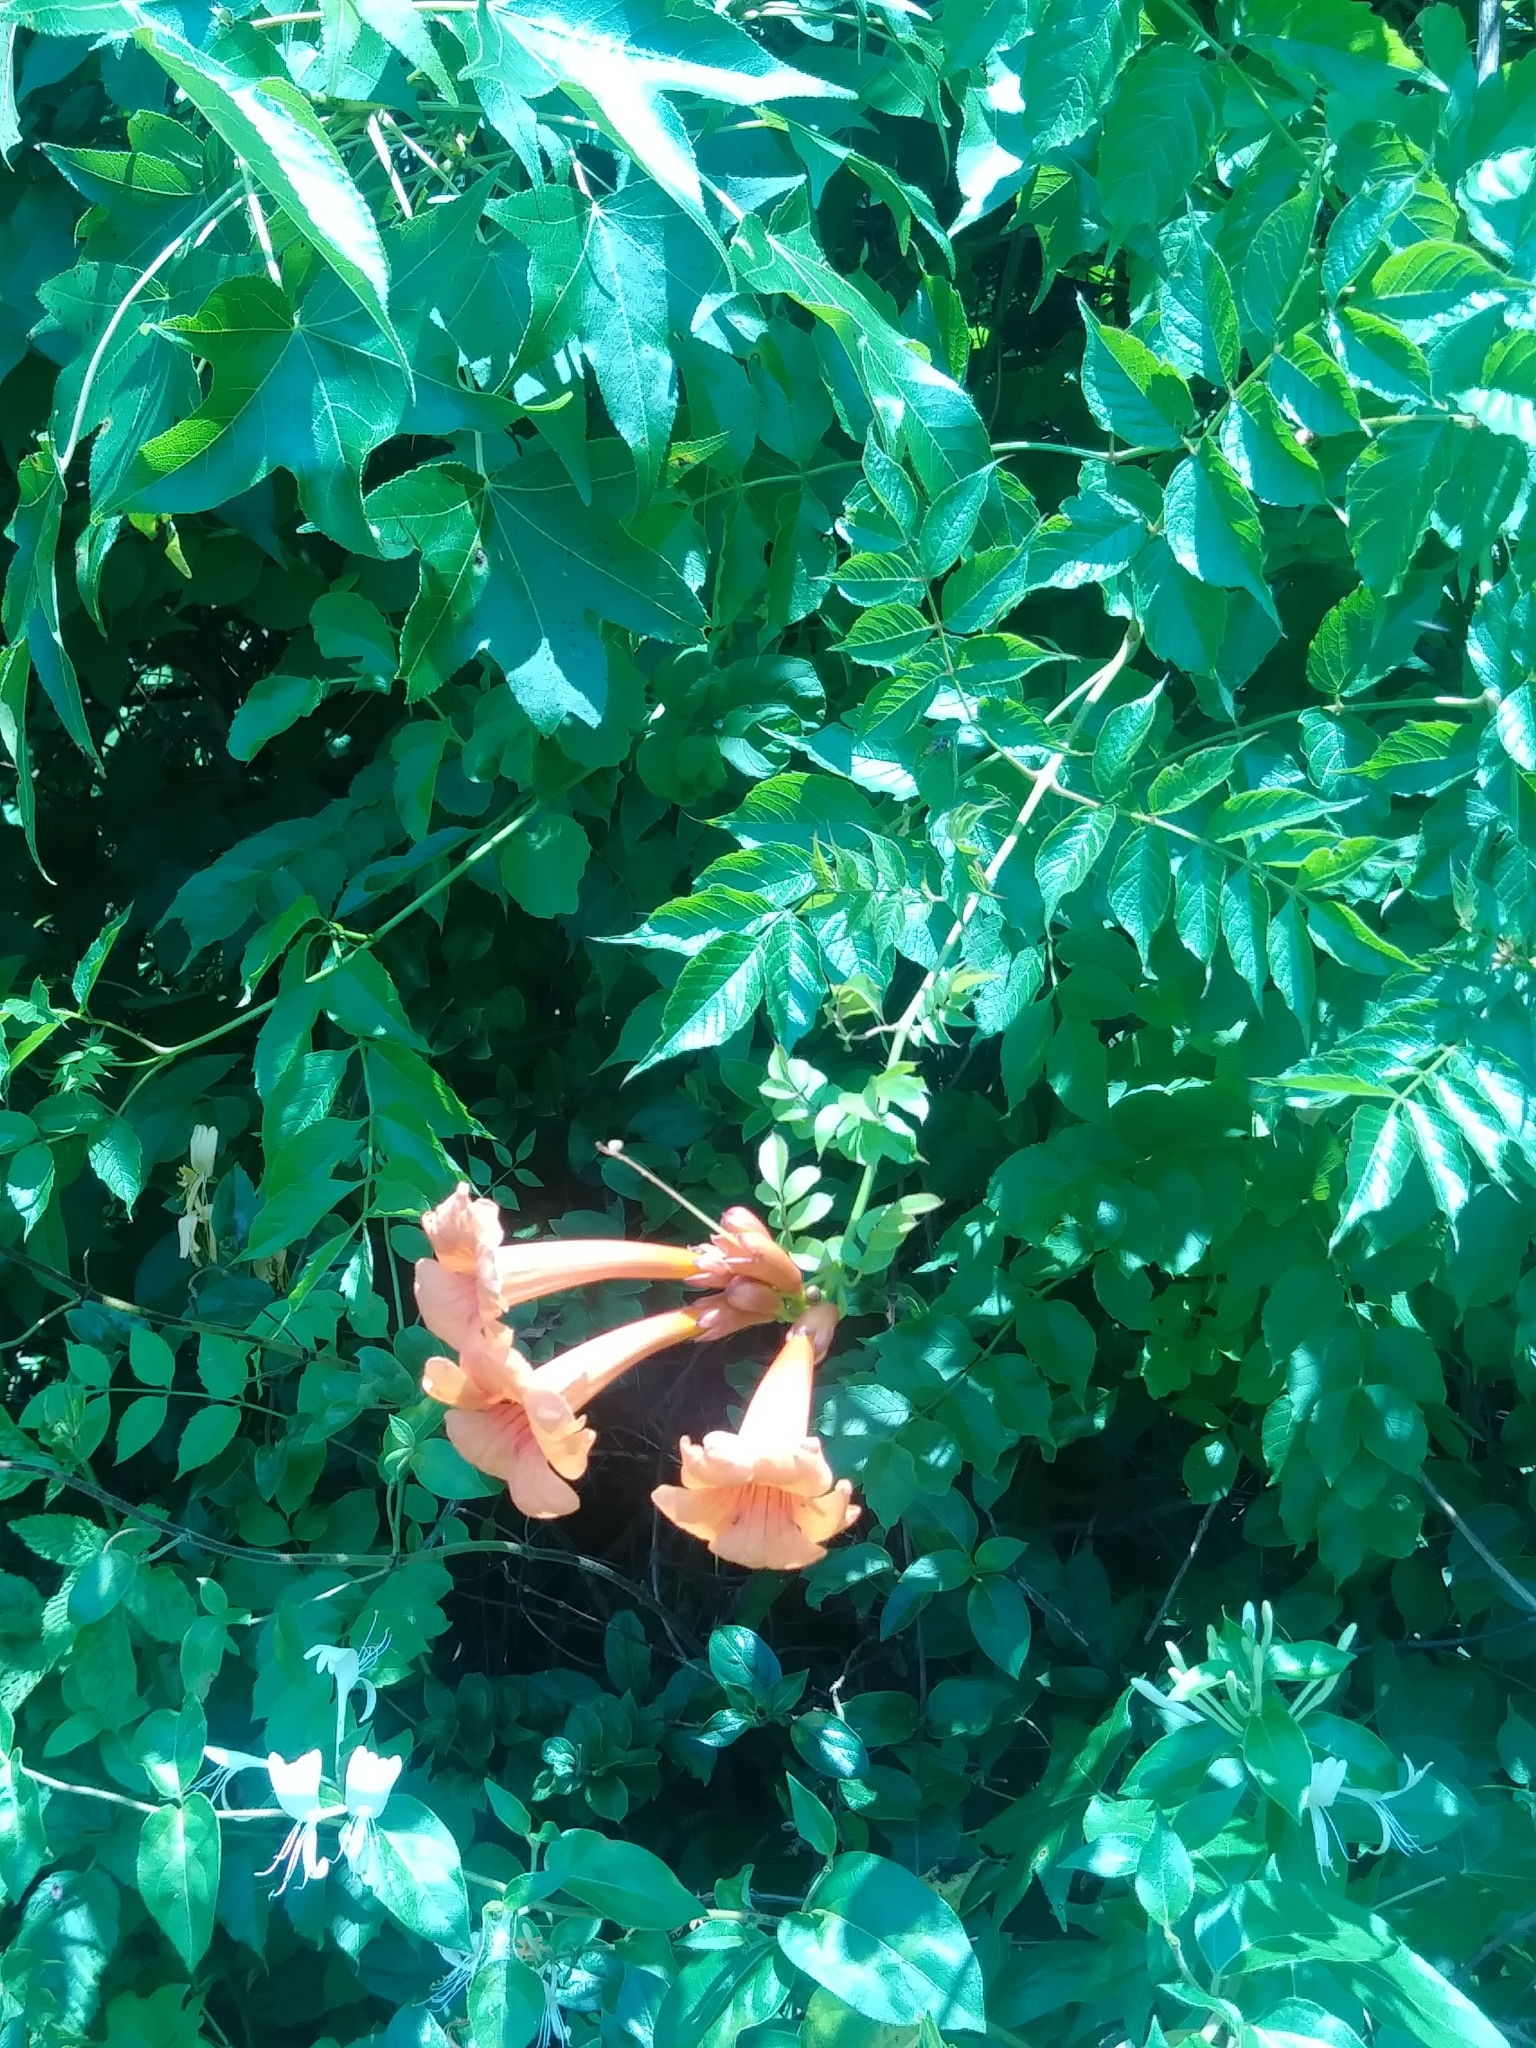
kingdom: Plantae
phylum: Tracheophyta
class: Magnoliopsida
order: Lamiales
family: Bignoniaceae
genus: Campsis
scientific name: Campsis radicans
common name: Trumpet-creeper
